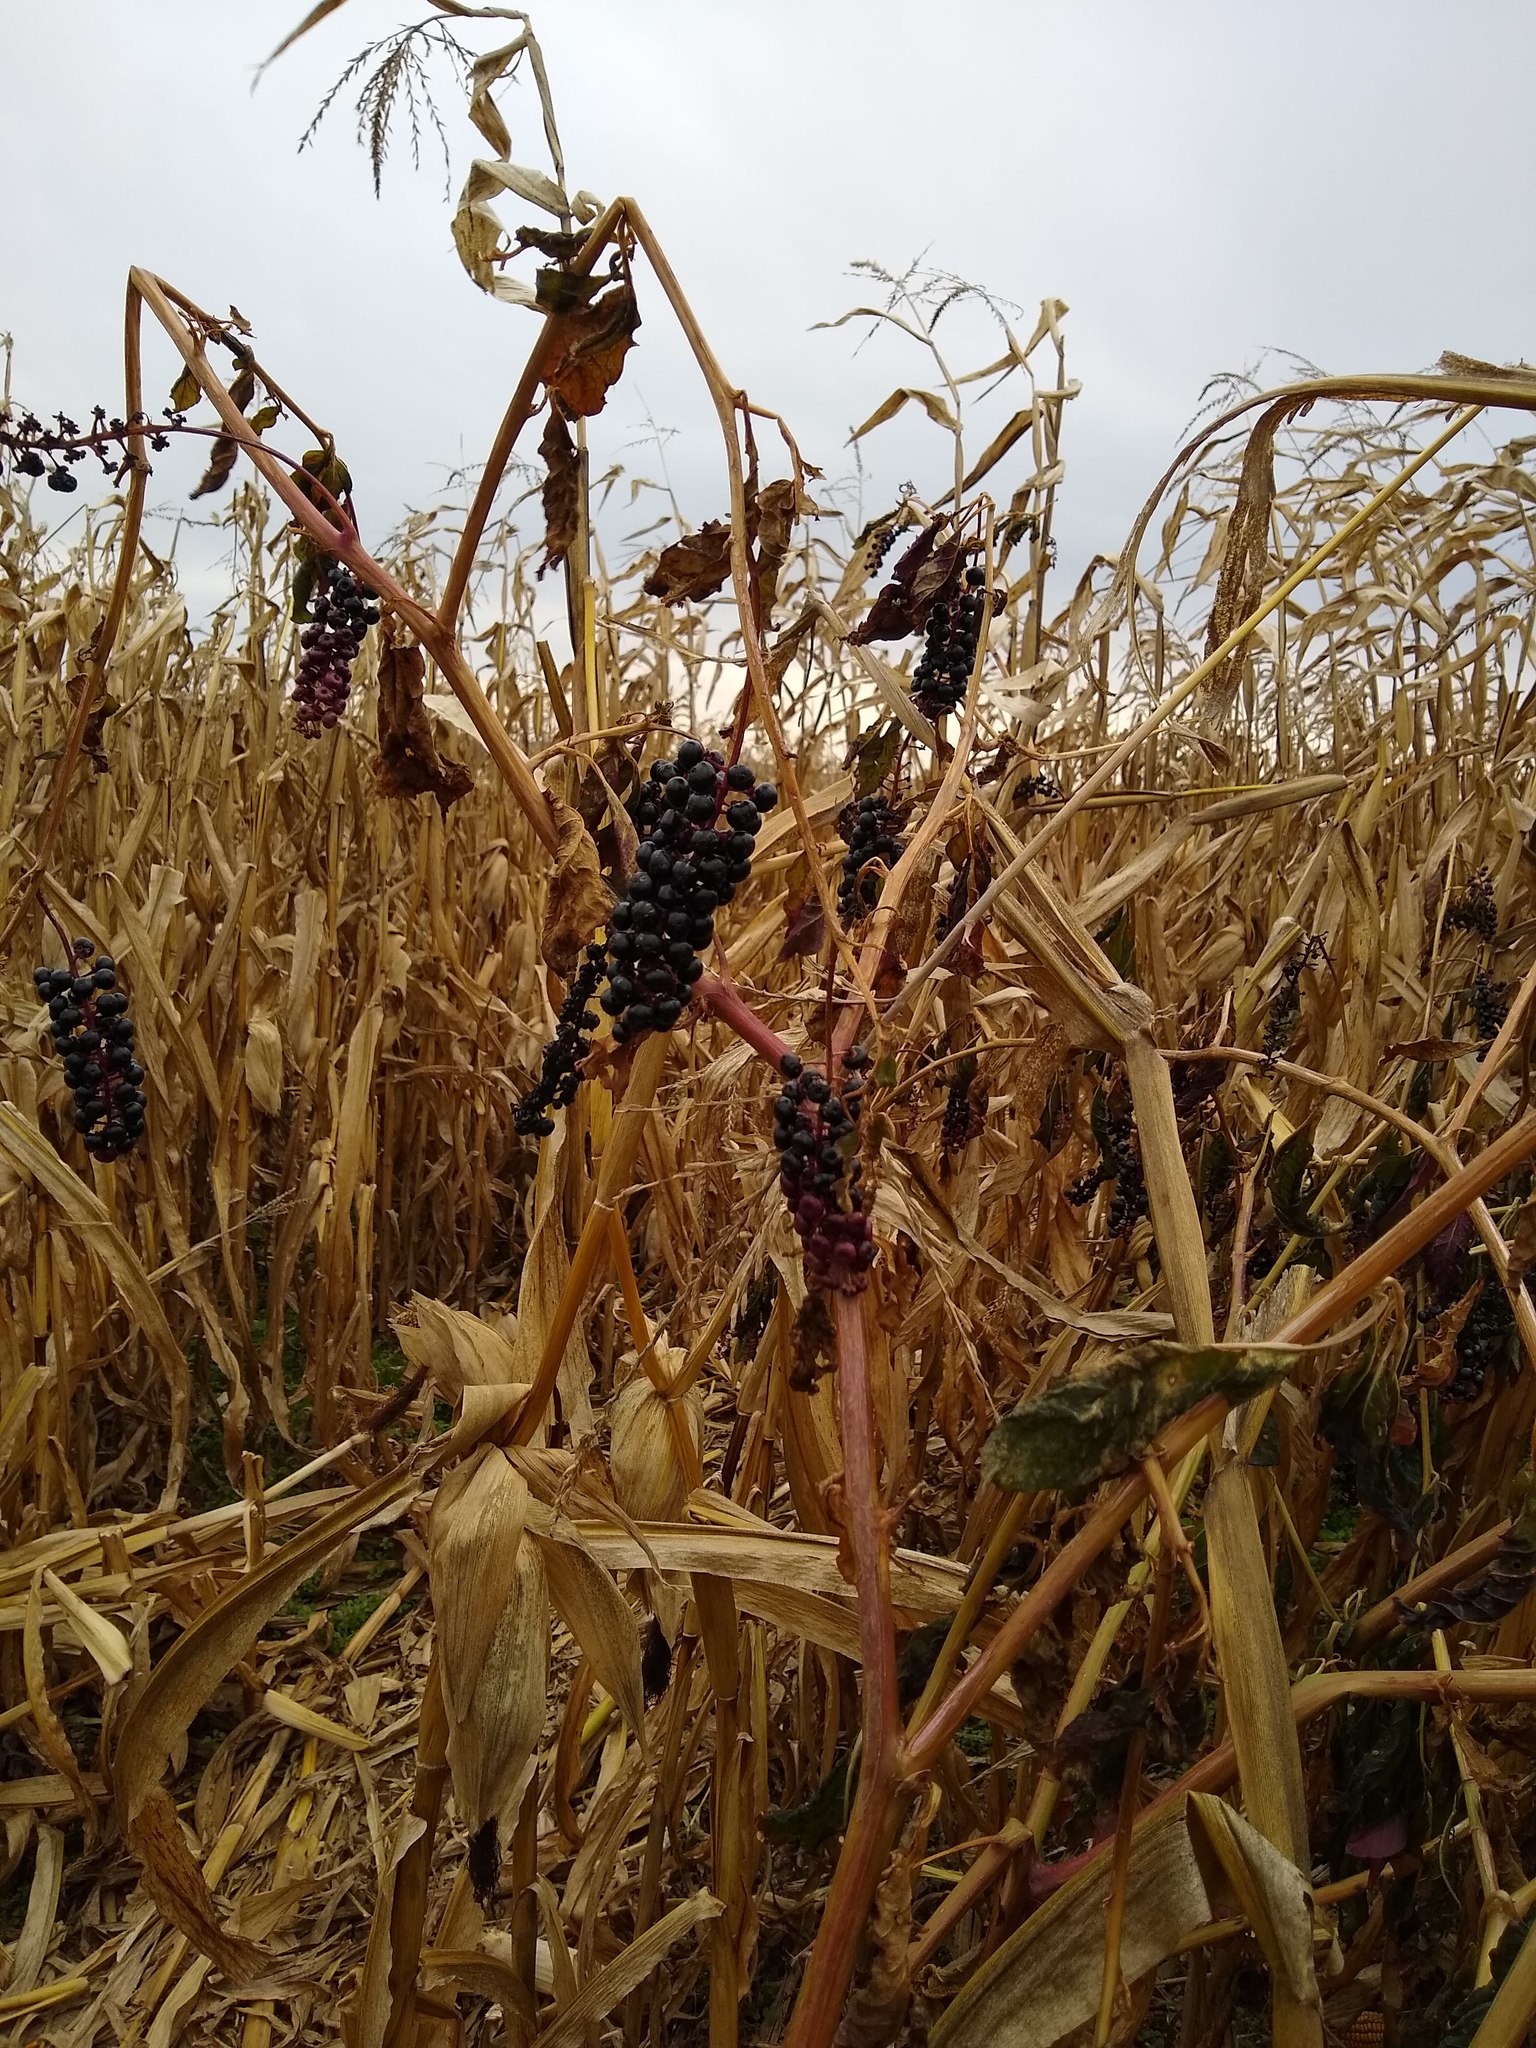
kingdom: Plantae
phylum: Tracheophyta
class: Magnoliopsida
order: Caryophyllales
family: Phytolaccaceae
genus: Phytolacca
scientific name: Phytolacca americana
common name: American pokeweed
